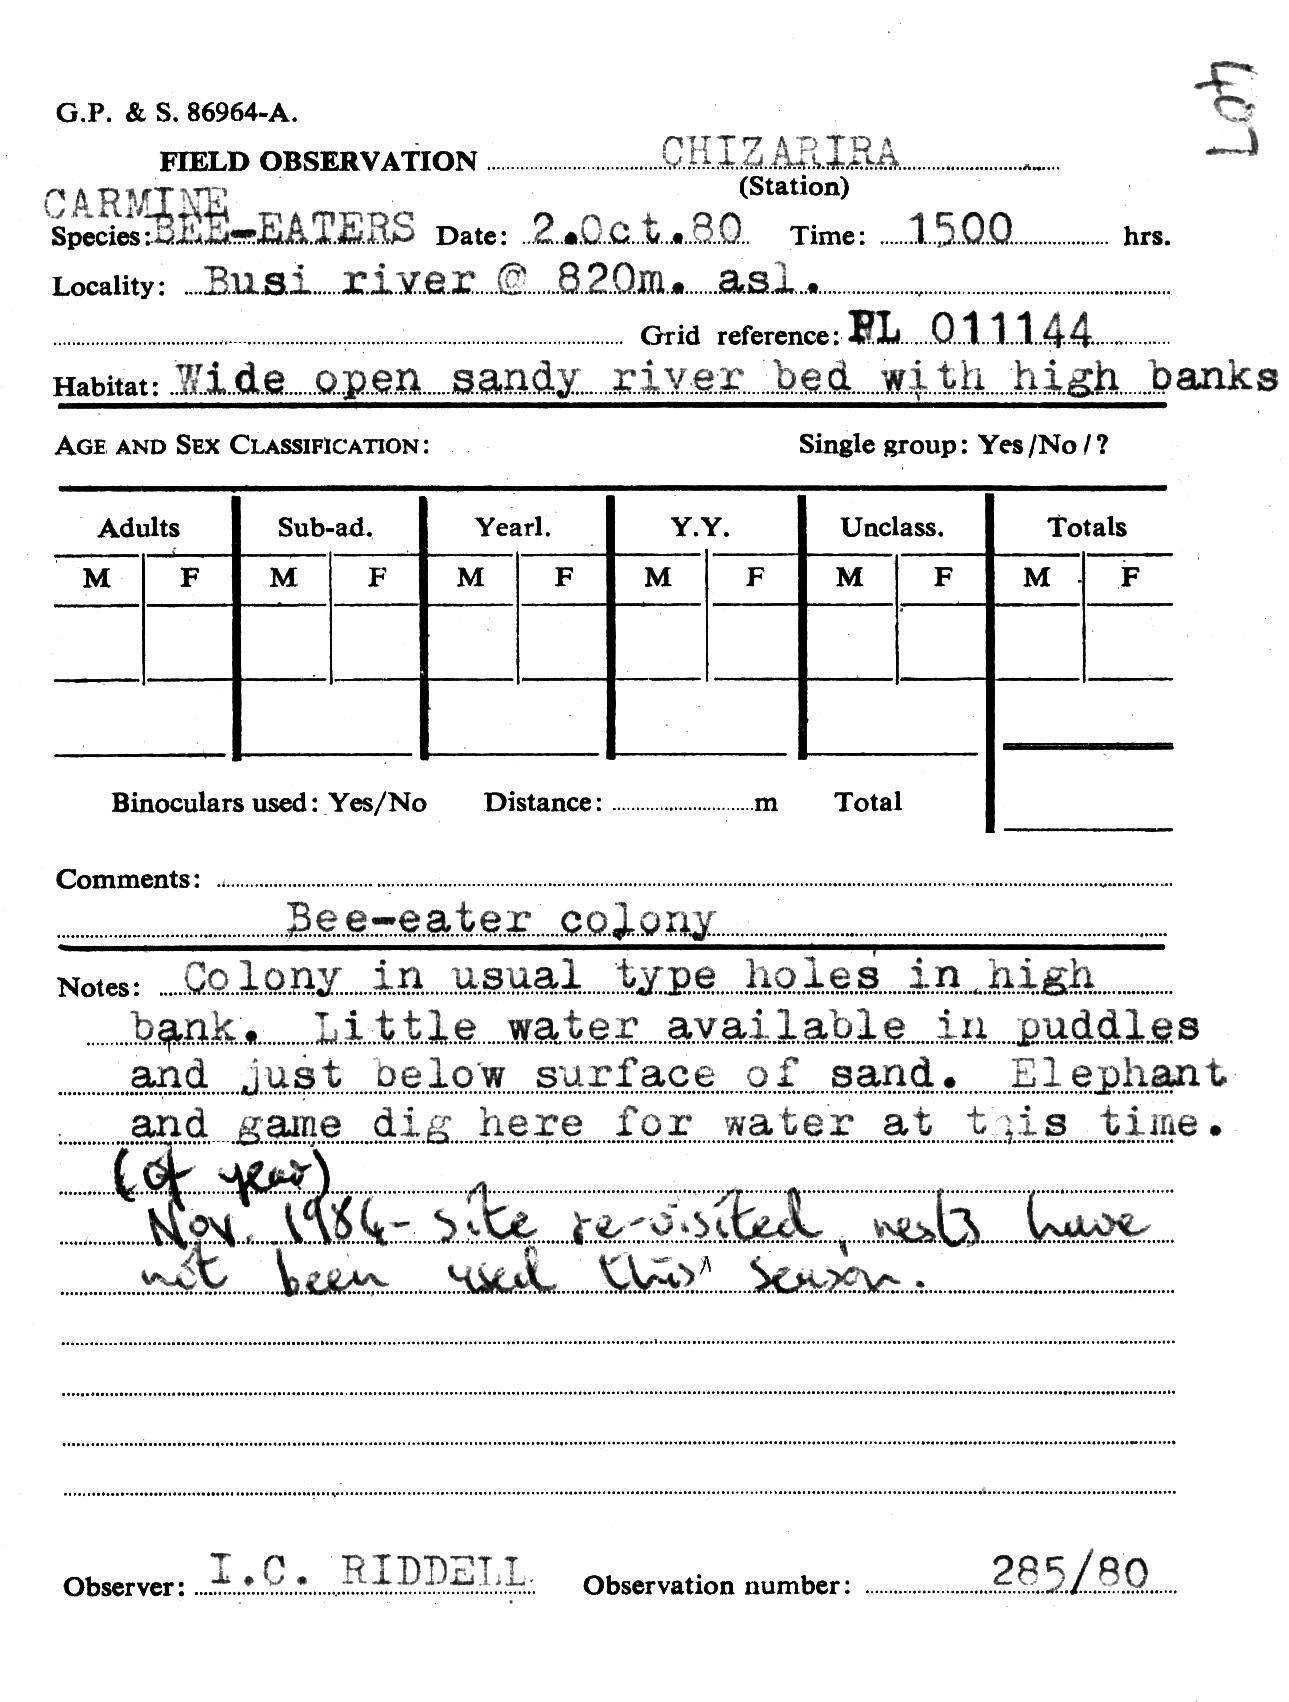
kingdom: Animalia
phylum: Chordata
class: Aves
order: Coraciiformes
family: Meropidae
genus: Merops
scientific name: Merops nubicoides
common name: Southern carmine bee-eater
